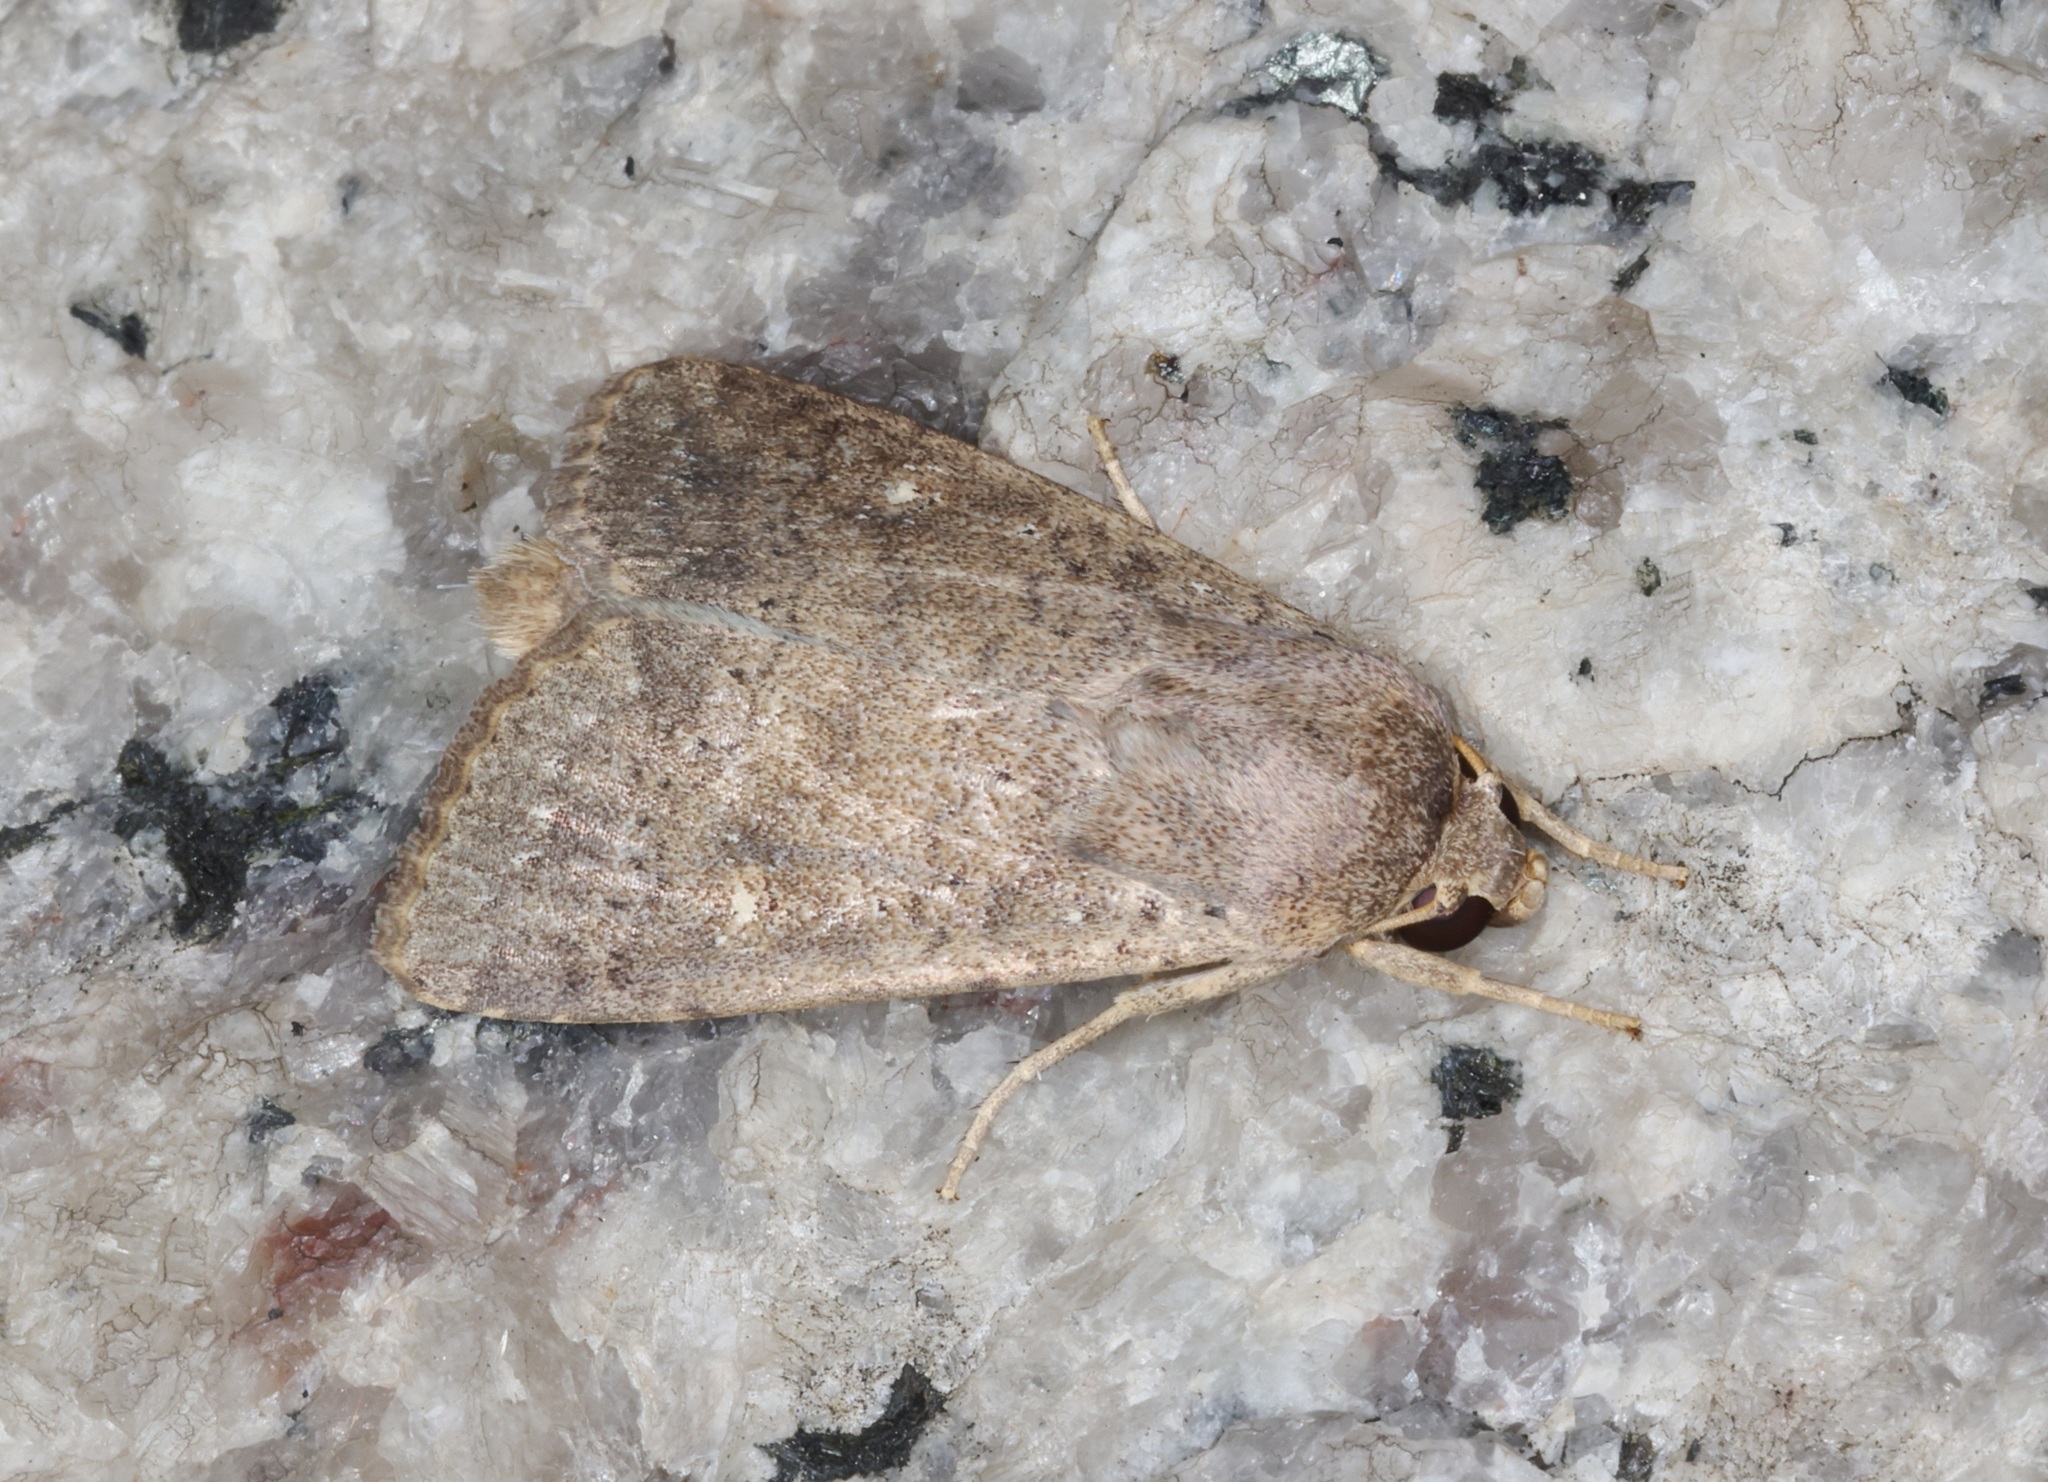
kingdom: Animalia
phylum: Arthropoda
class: Insecta
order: Lepidoptera
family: Noctuidae
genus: Athetis
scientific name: Athetis erigida
